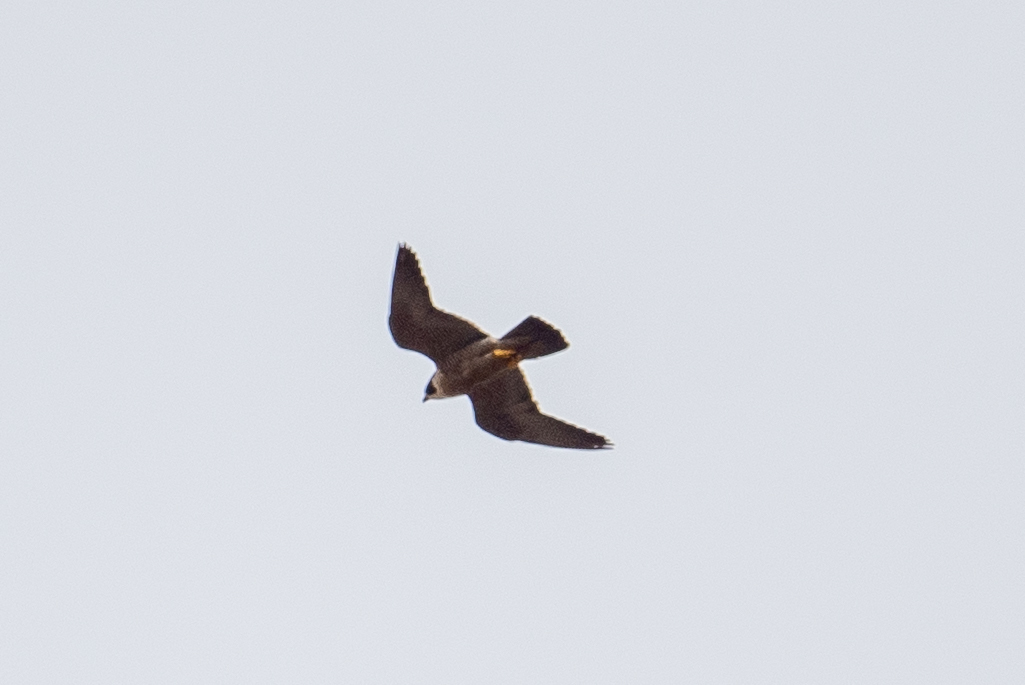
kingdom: Animalia
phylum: Chordata
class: Aves
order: Falconiformes
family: Falconidae
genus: Falco
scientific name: Falco peregrinus
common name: Peregrine falcon
